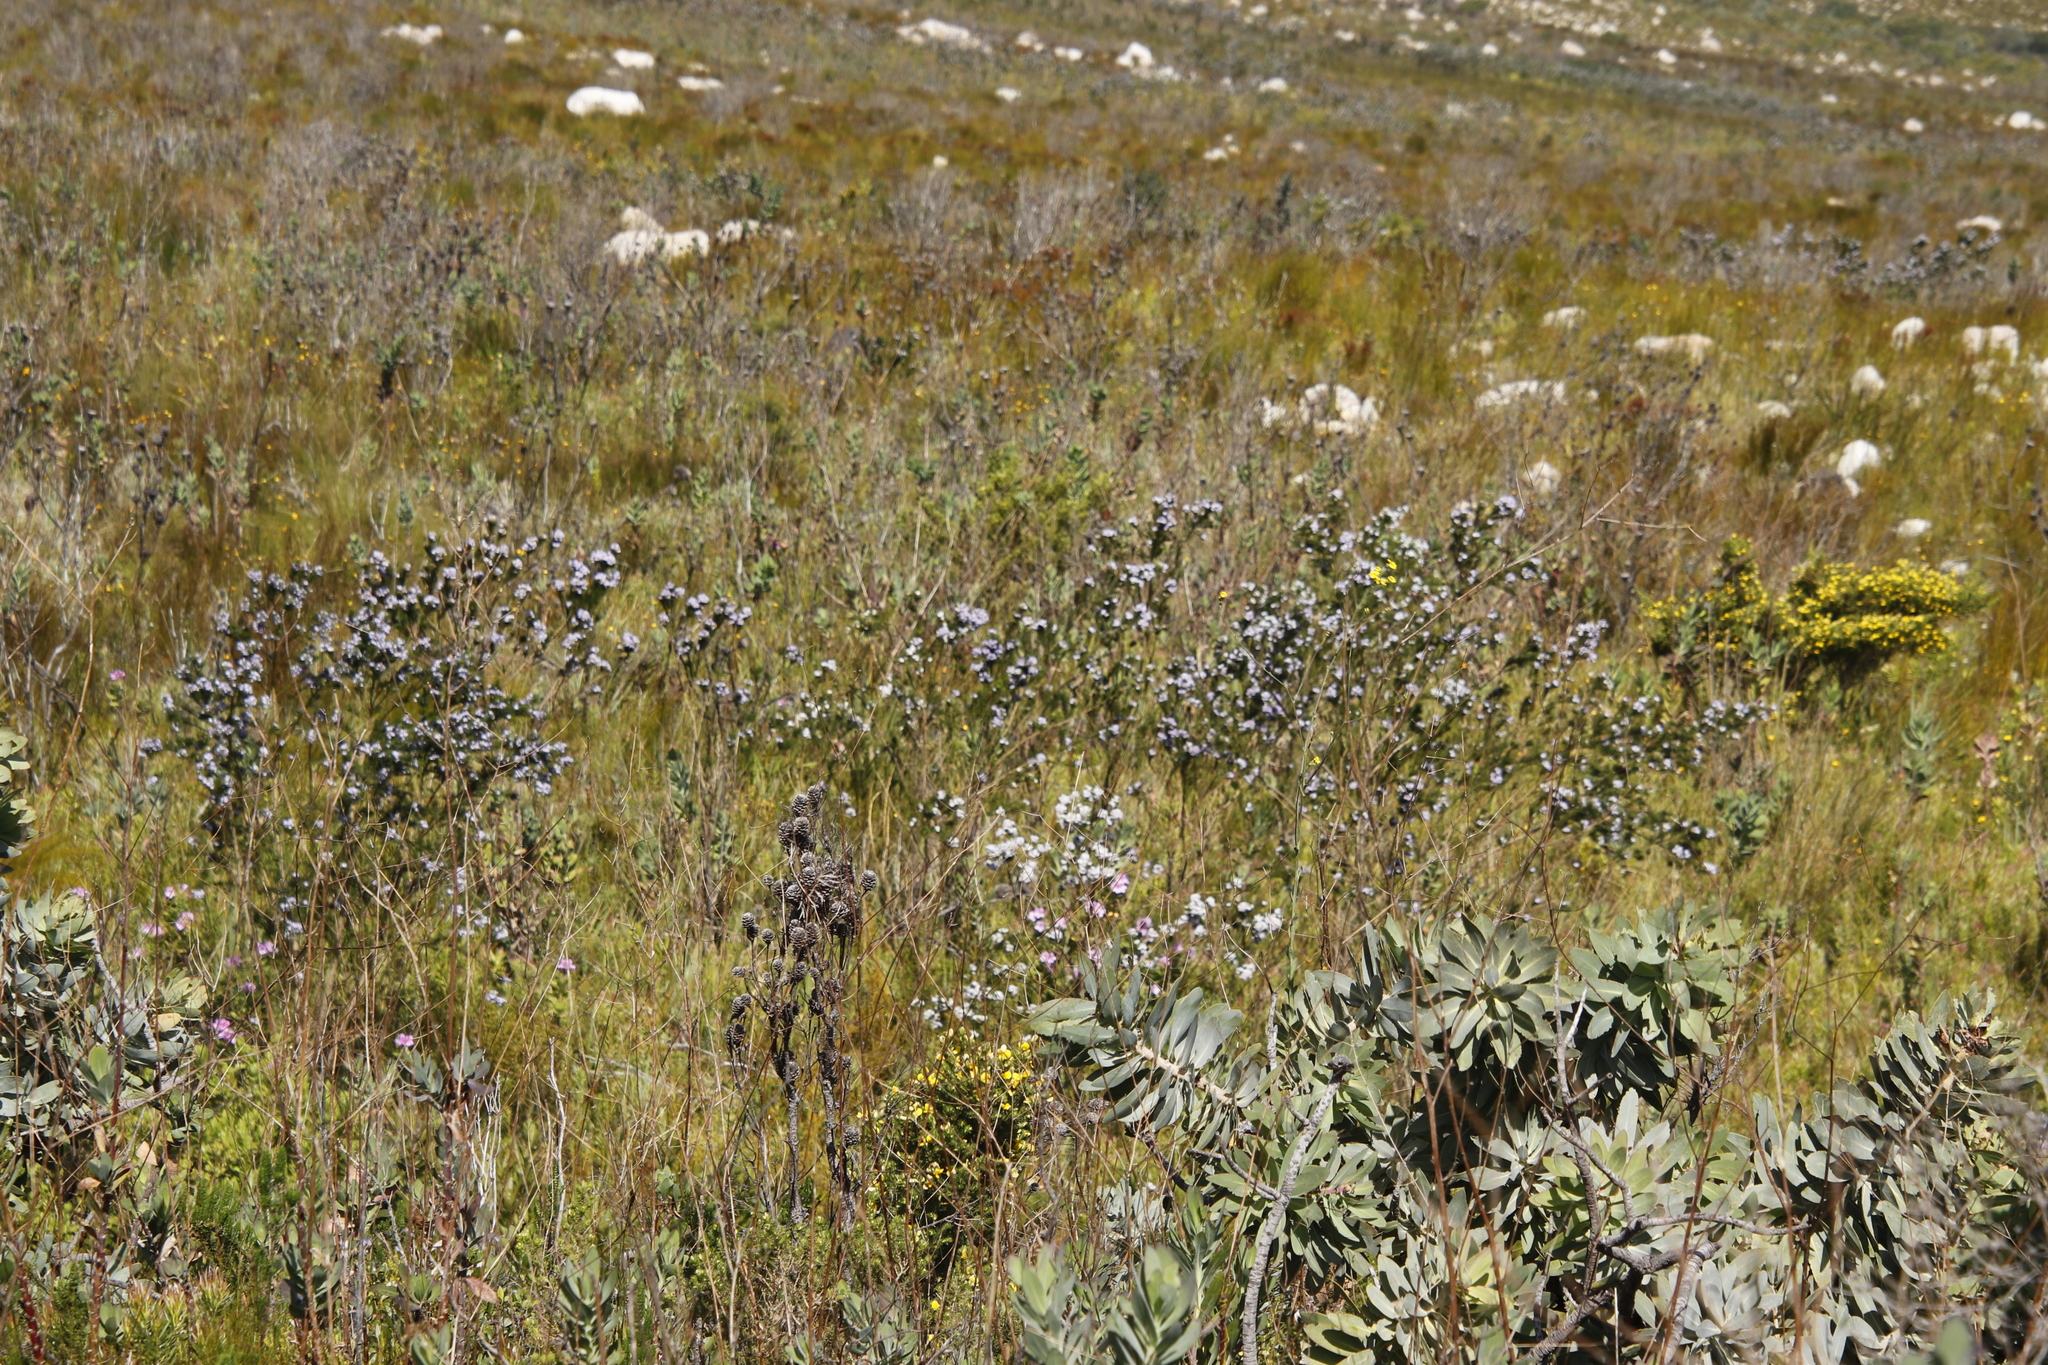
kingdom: Plantae
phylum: Tracheophyta
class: Magnoliopsida
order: Fabales
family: Fabaceae
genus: Psoralea
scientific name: Psoralea ivumba
